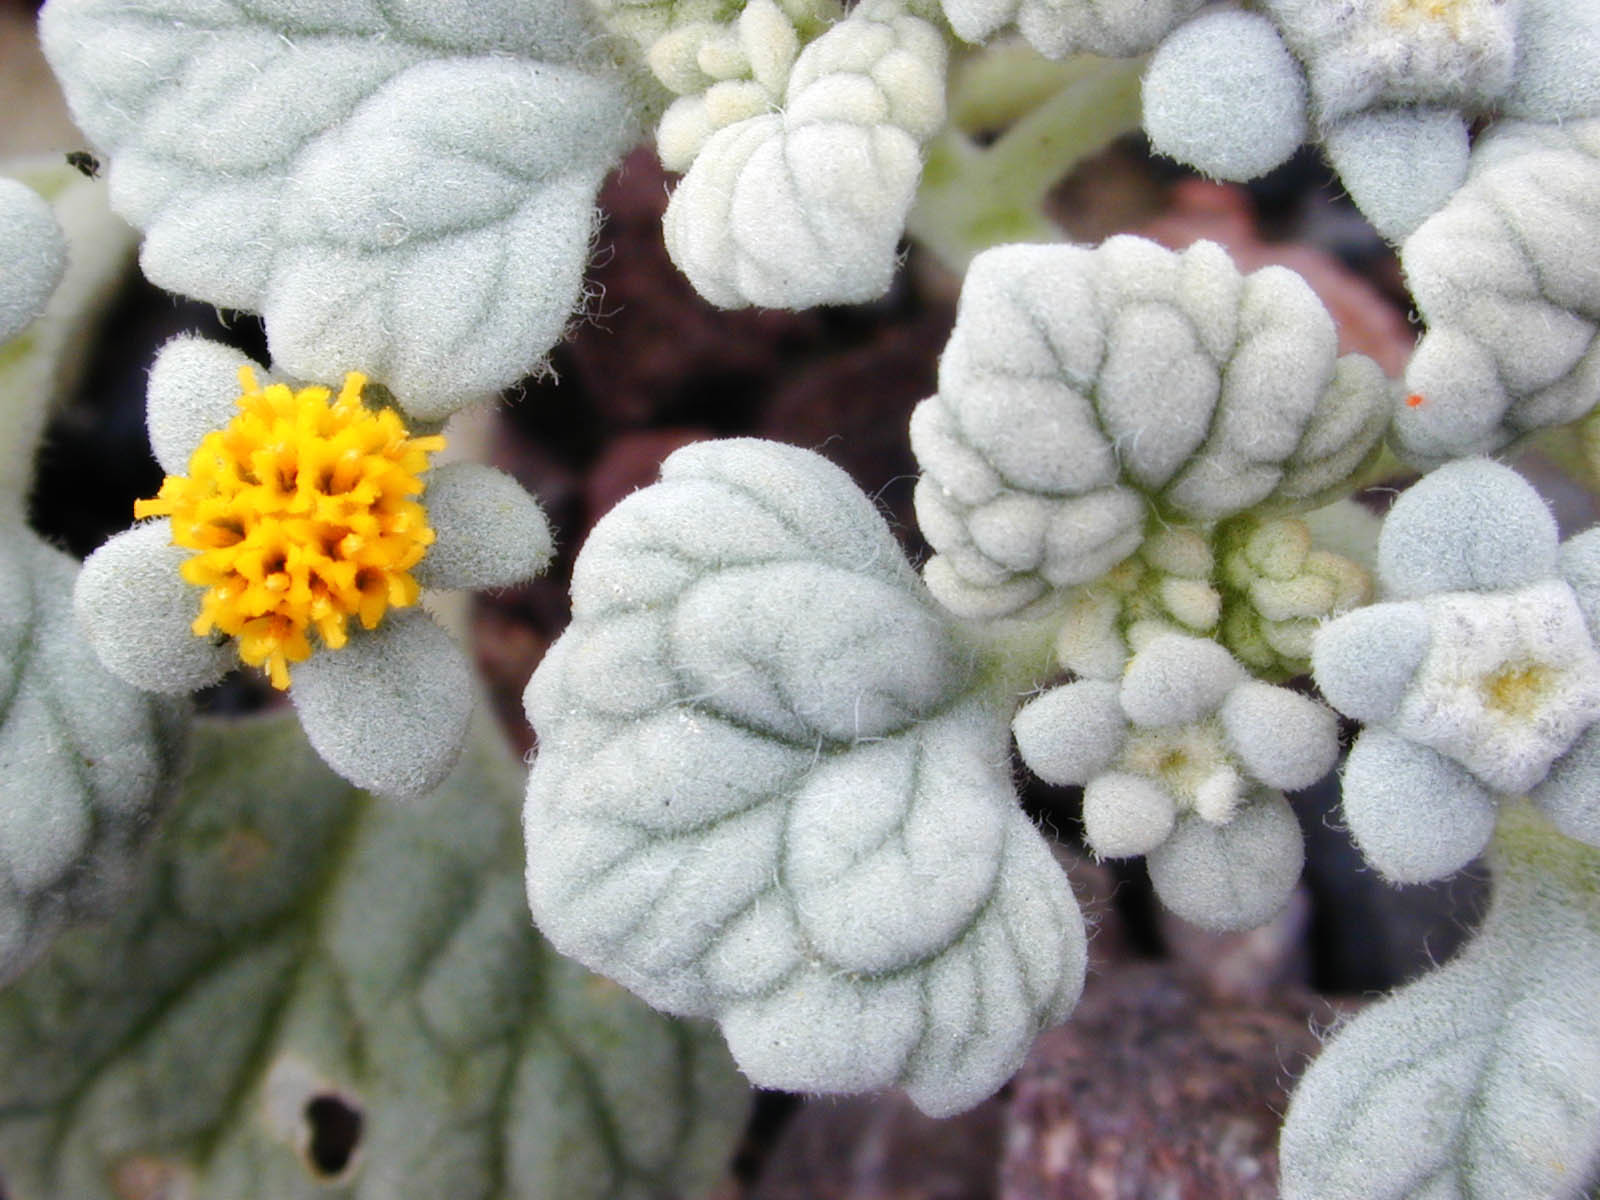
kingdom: Plantae
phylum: Tracheophyta
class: Magnoliopsida
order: Asterales
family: Asteraceae
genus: Psathyrotes
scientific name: Psathyrotes ramosissima
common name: Turtleback
